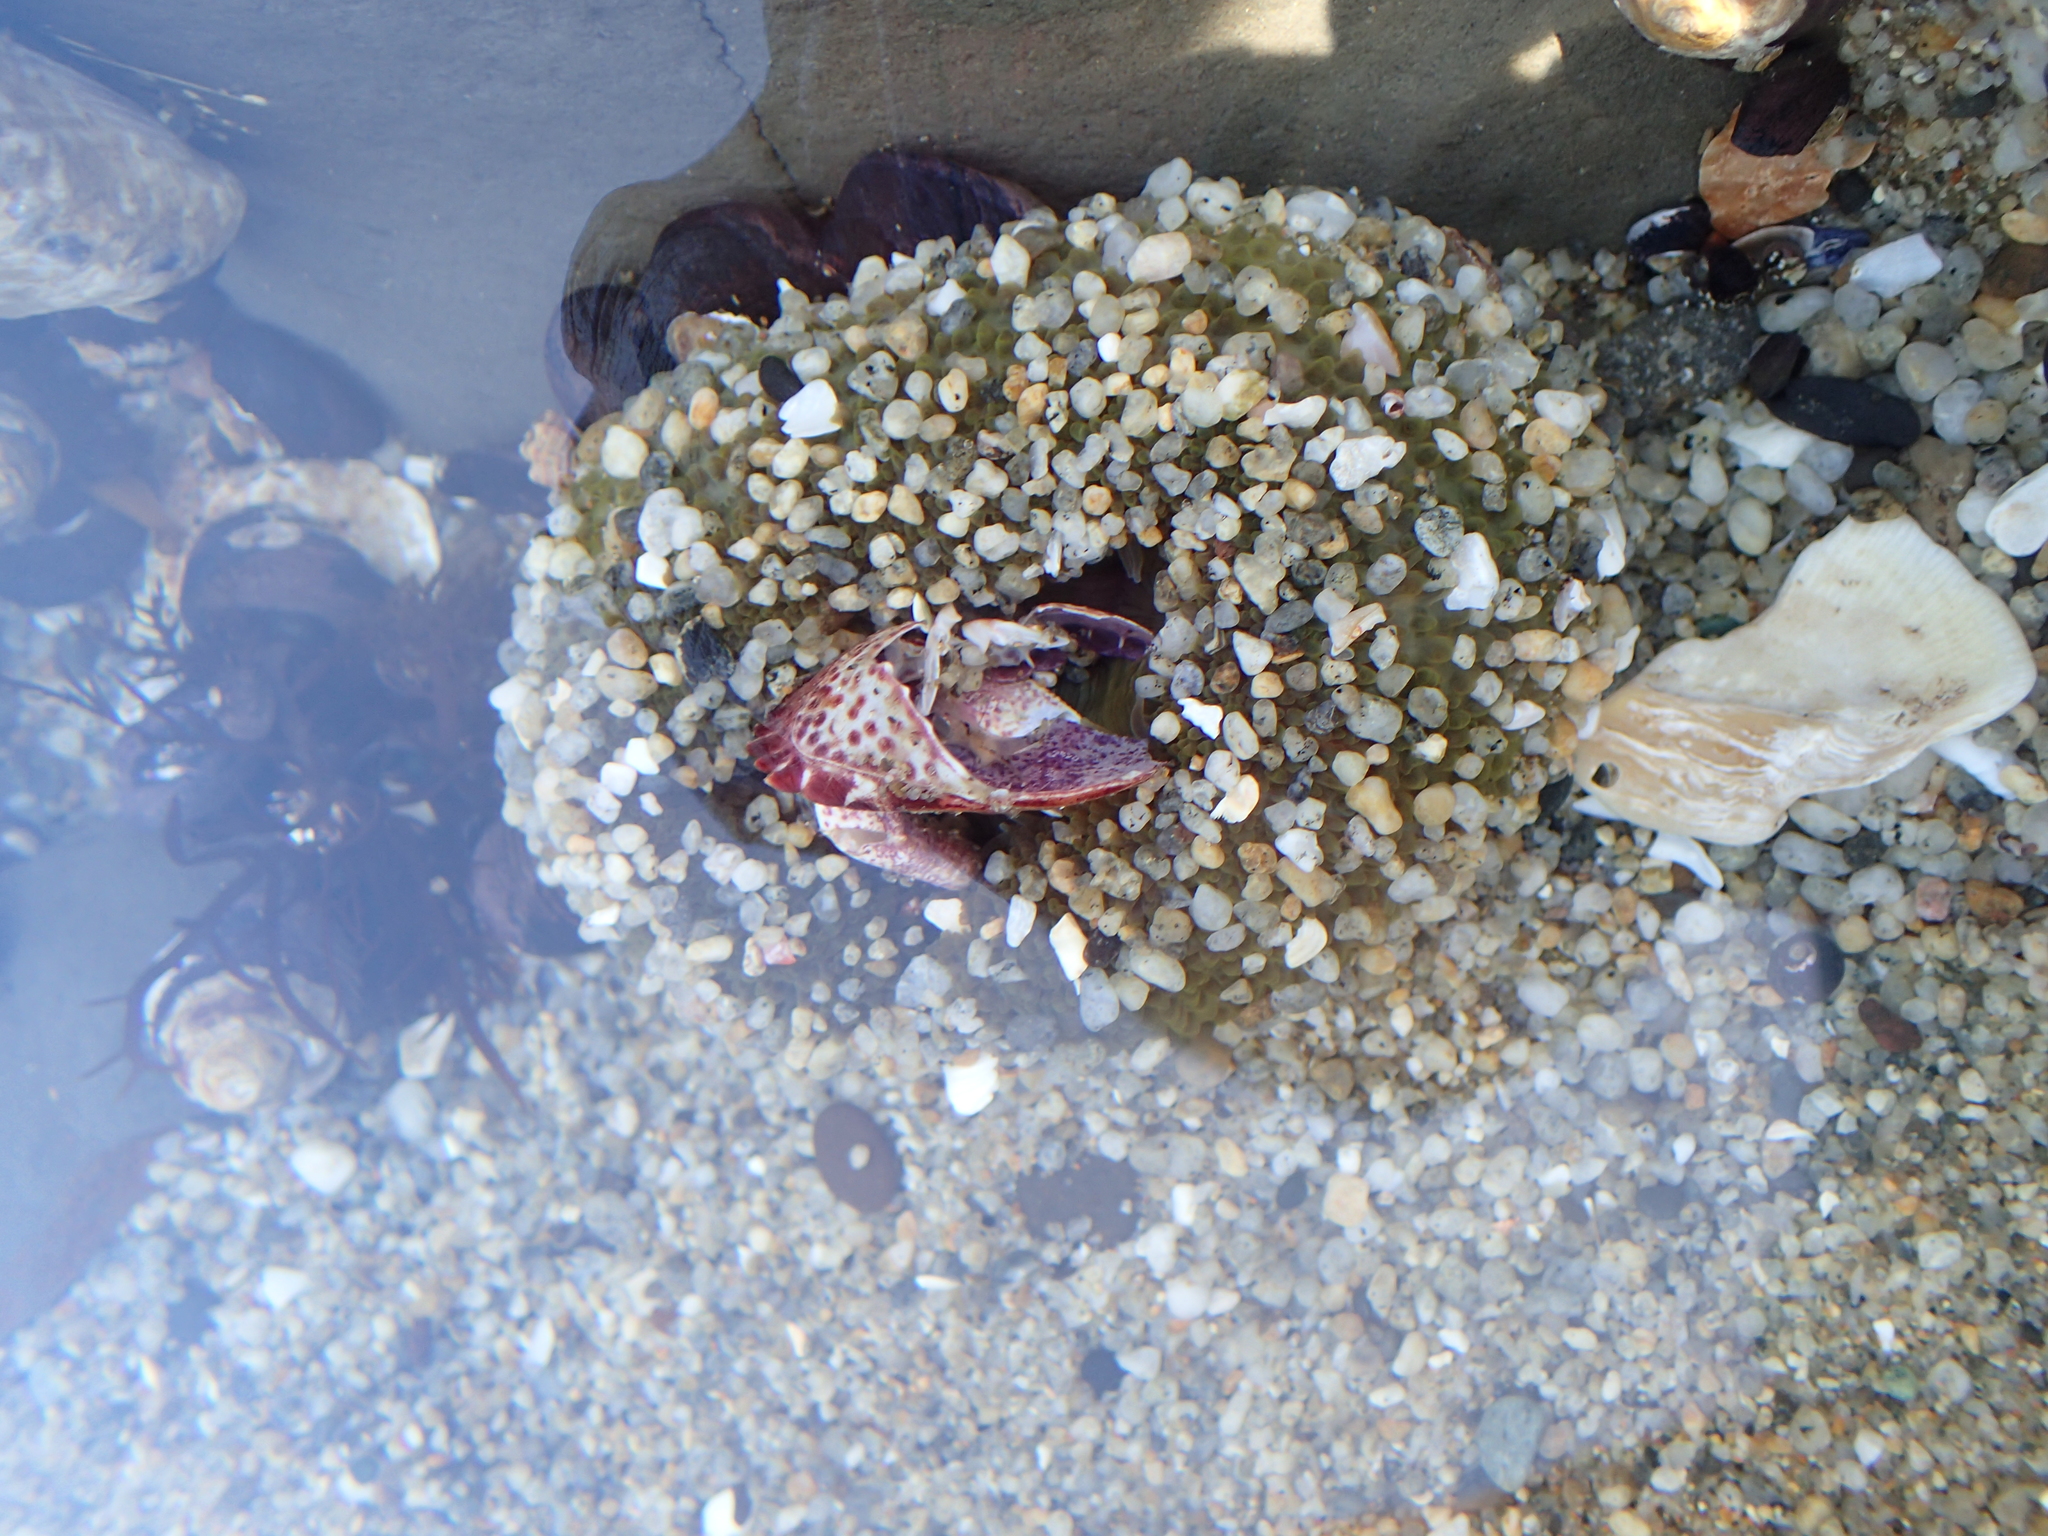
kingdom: Animalia
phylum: Cnidaria
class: Anthozoa
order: Actiniaria
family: Actiniidae
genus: Anthopleura
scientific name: Anthopleura sola
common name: Sun anemone
